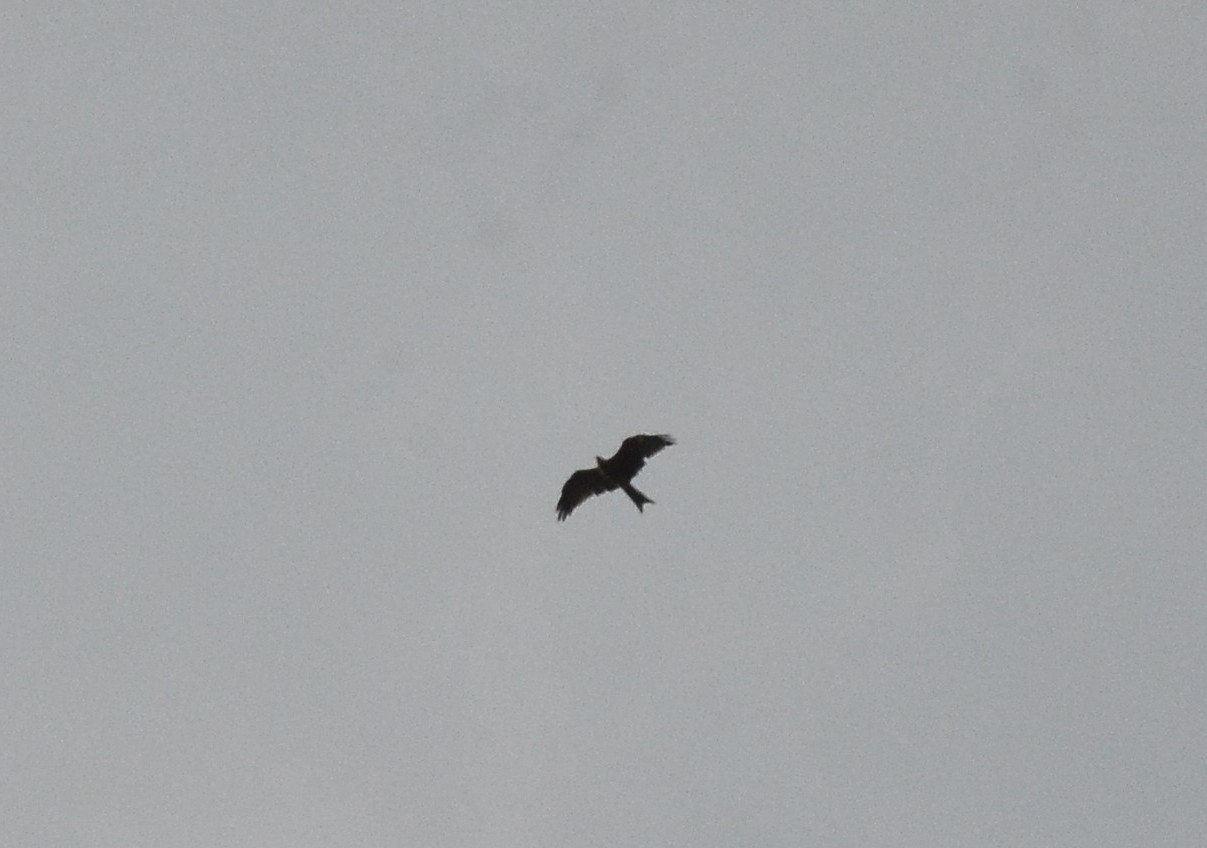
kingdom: Animalia
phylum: Chordata
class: Aves
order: Accipitriformes
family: Accipitridae
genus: Milvus
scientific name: Milvus migrans
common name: Black kite
